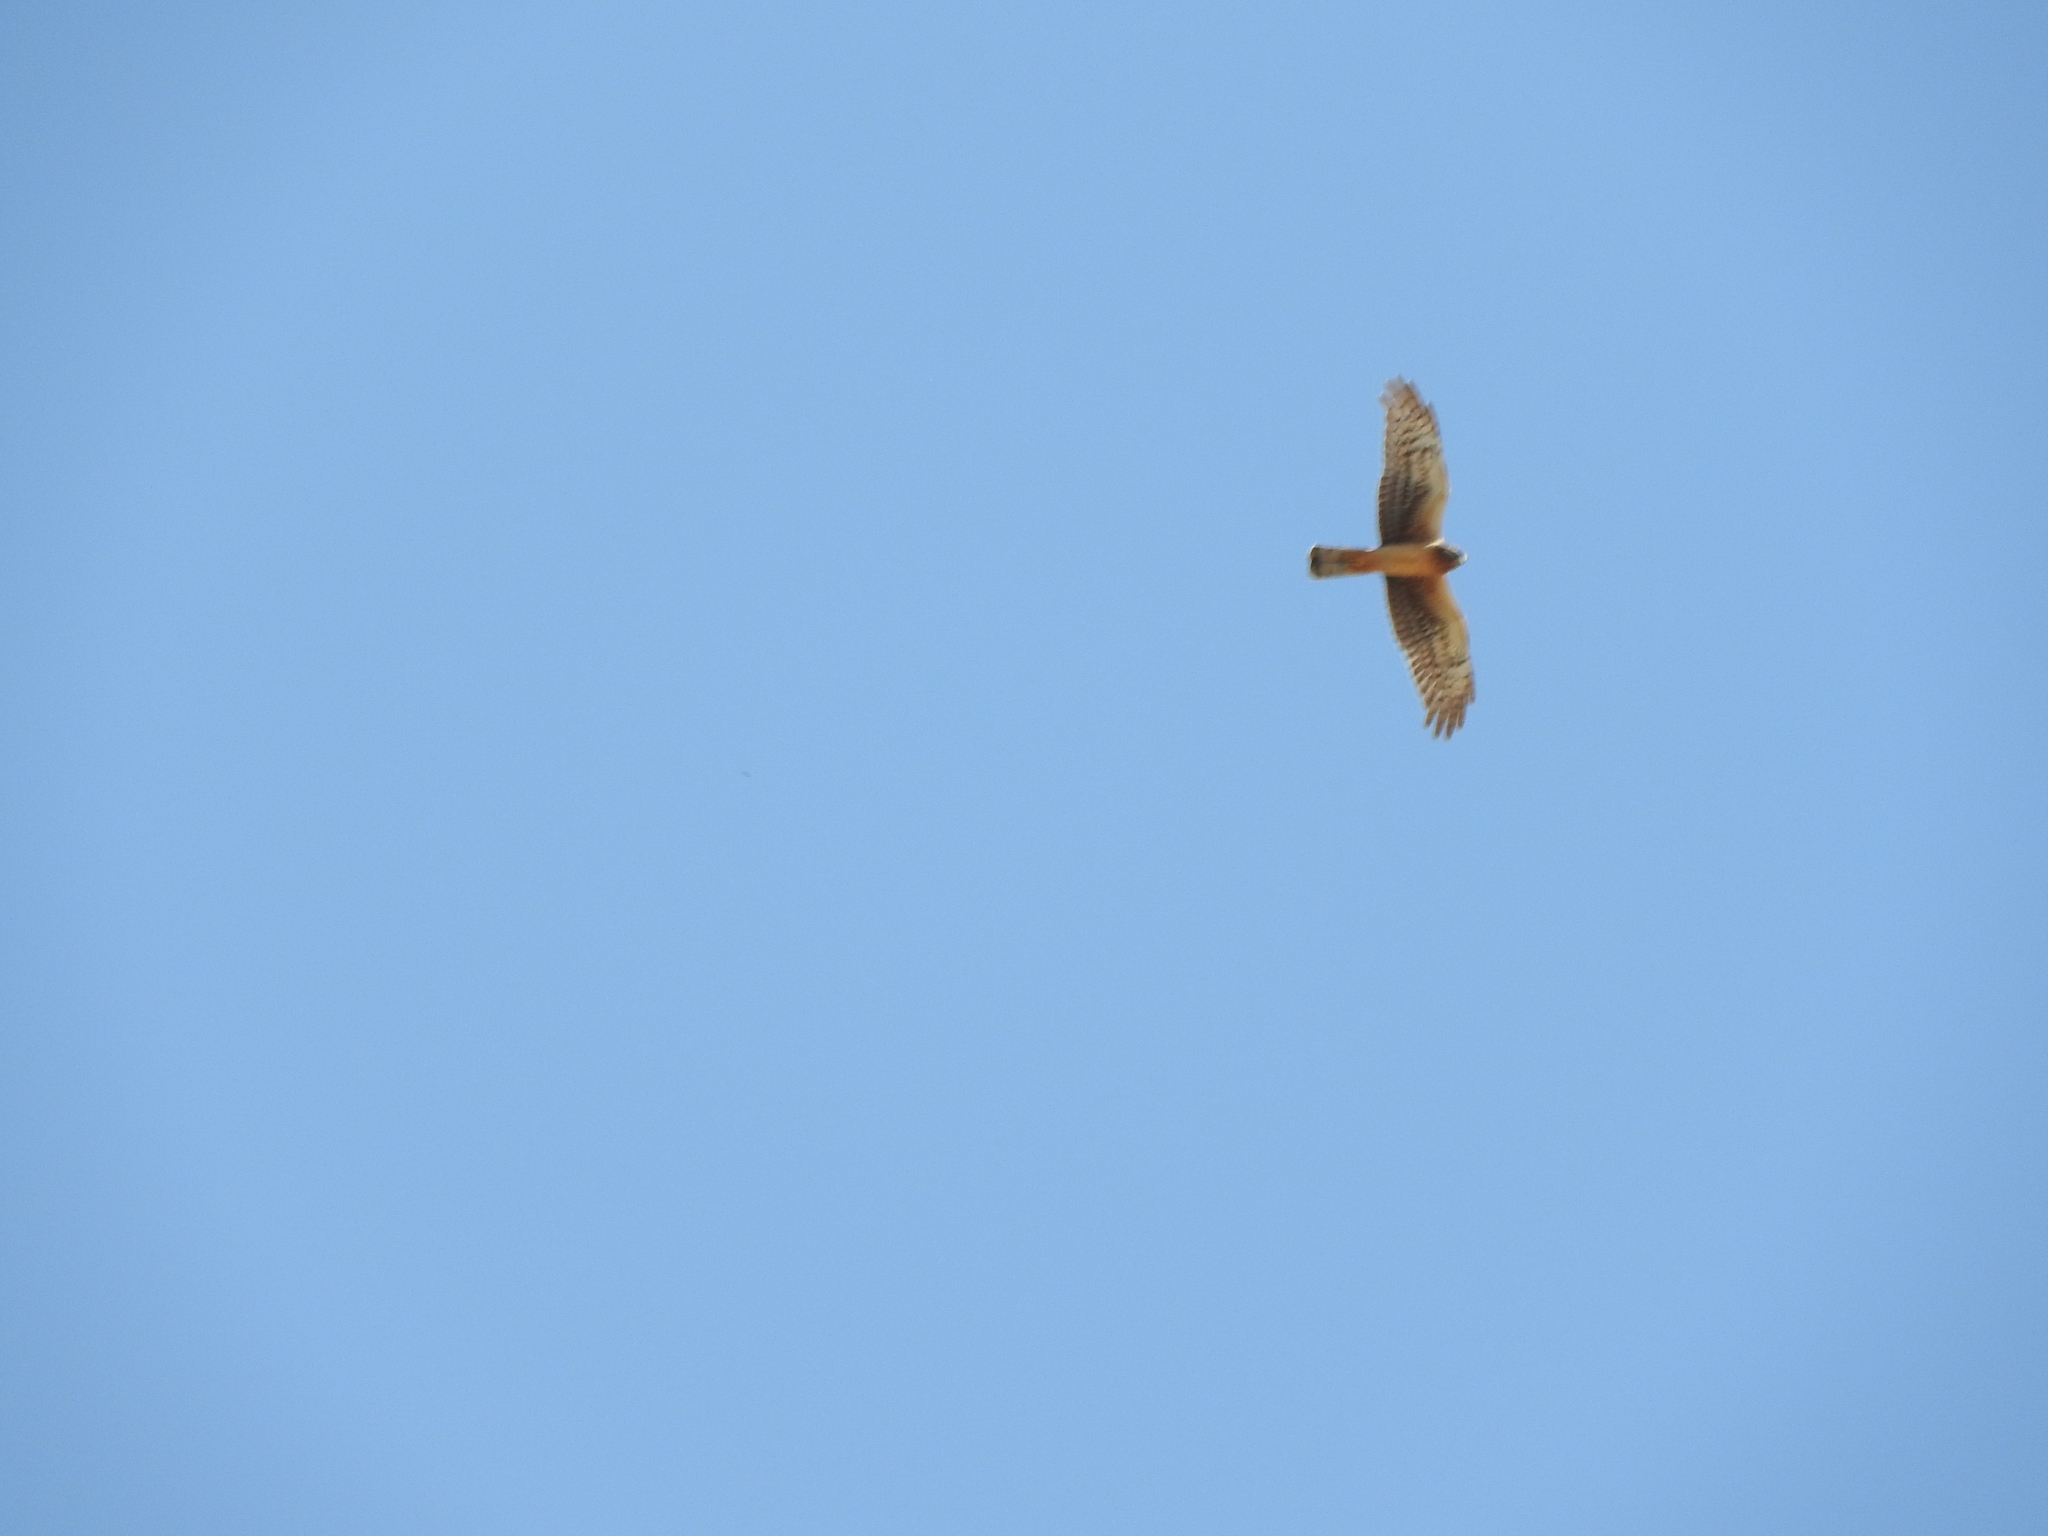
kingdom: Animalia
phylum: Chordata
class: Aves
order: Accipitriformes
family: Accipitridae
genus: Circus
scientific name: Circus cyaneus
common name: Hen harrier
